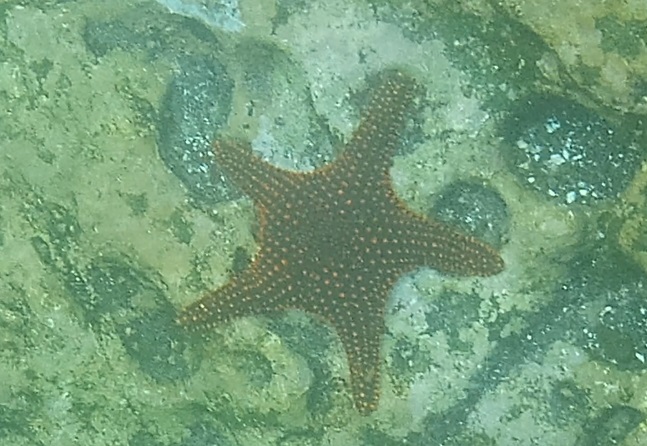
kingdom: Animalia
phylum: Echinodermata
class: Asteroidea
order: Valvatida
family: Oreasteridae
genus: Pentaceraster
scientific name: Pentaceraster cumingi
